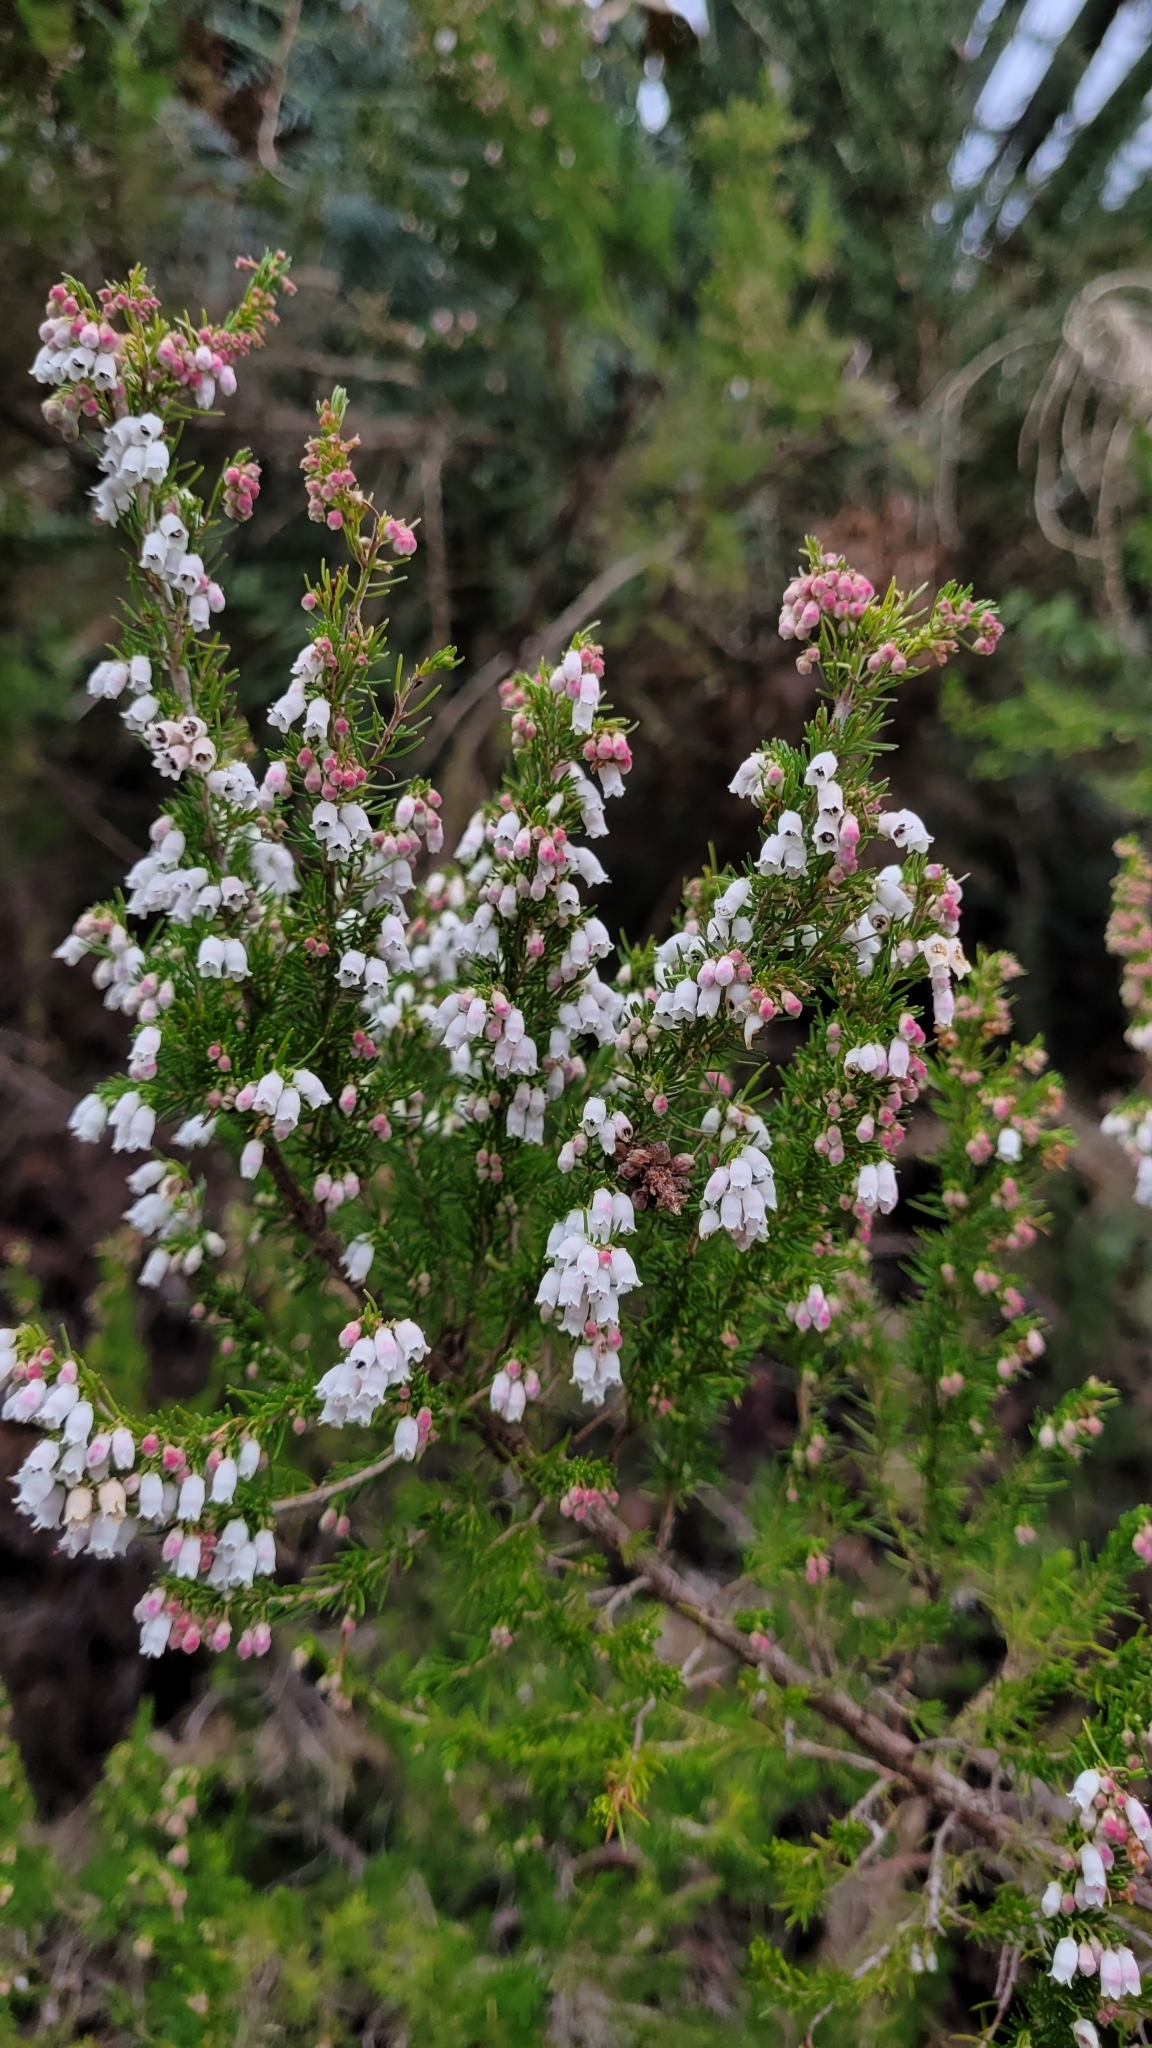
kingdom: Plantae
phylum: Tracheophyta
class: Magnoliopsida
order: Ericales
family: Ericaceae
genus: Erica
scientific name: Erica lusitanica
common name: Spanish heath
